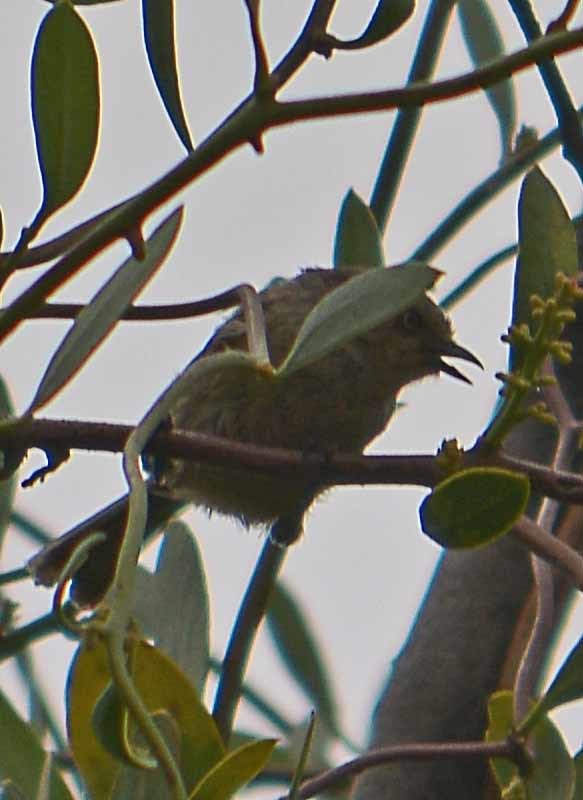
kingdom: Animalia
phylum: Chordata
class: Aves
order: Passeriformes
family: Aegithalidae
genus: Psaltriparus
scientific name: Psaltriparus minimus
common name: American bushtit
